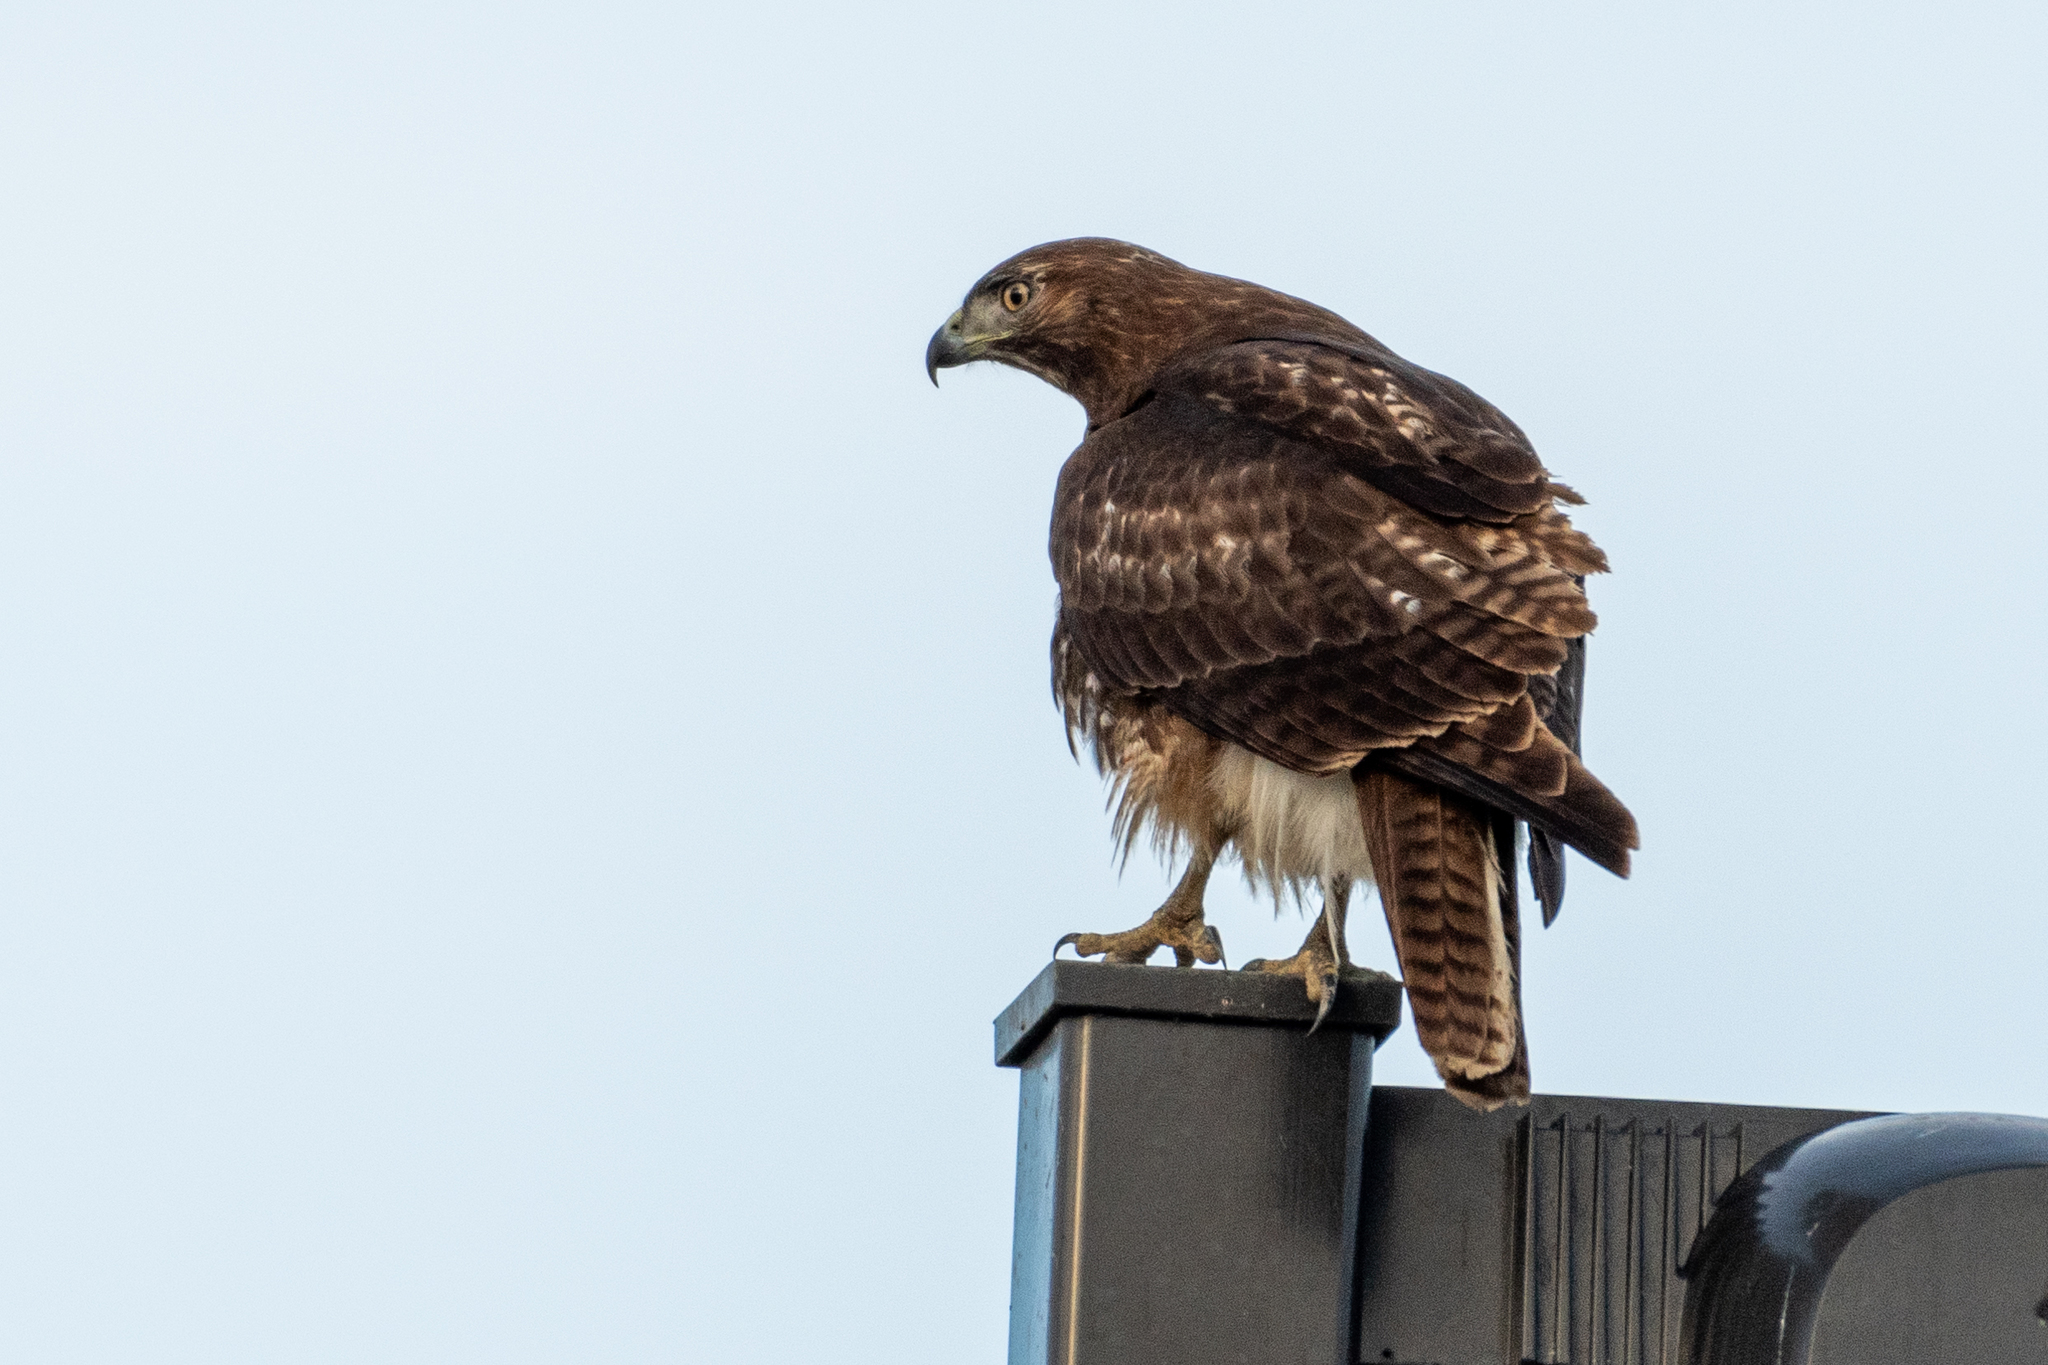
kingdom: Animalia
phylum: Chordata
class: Aves
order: Accipitriformes
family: Accipitridae
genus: Buteo
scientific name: Buteo jamaicensis
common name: Red-tailed hawk
